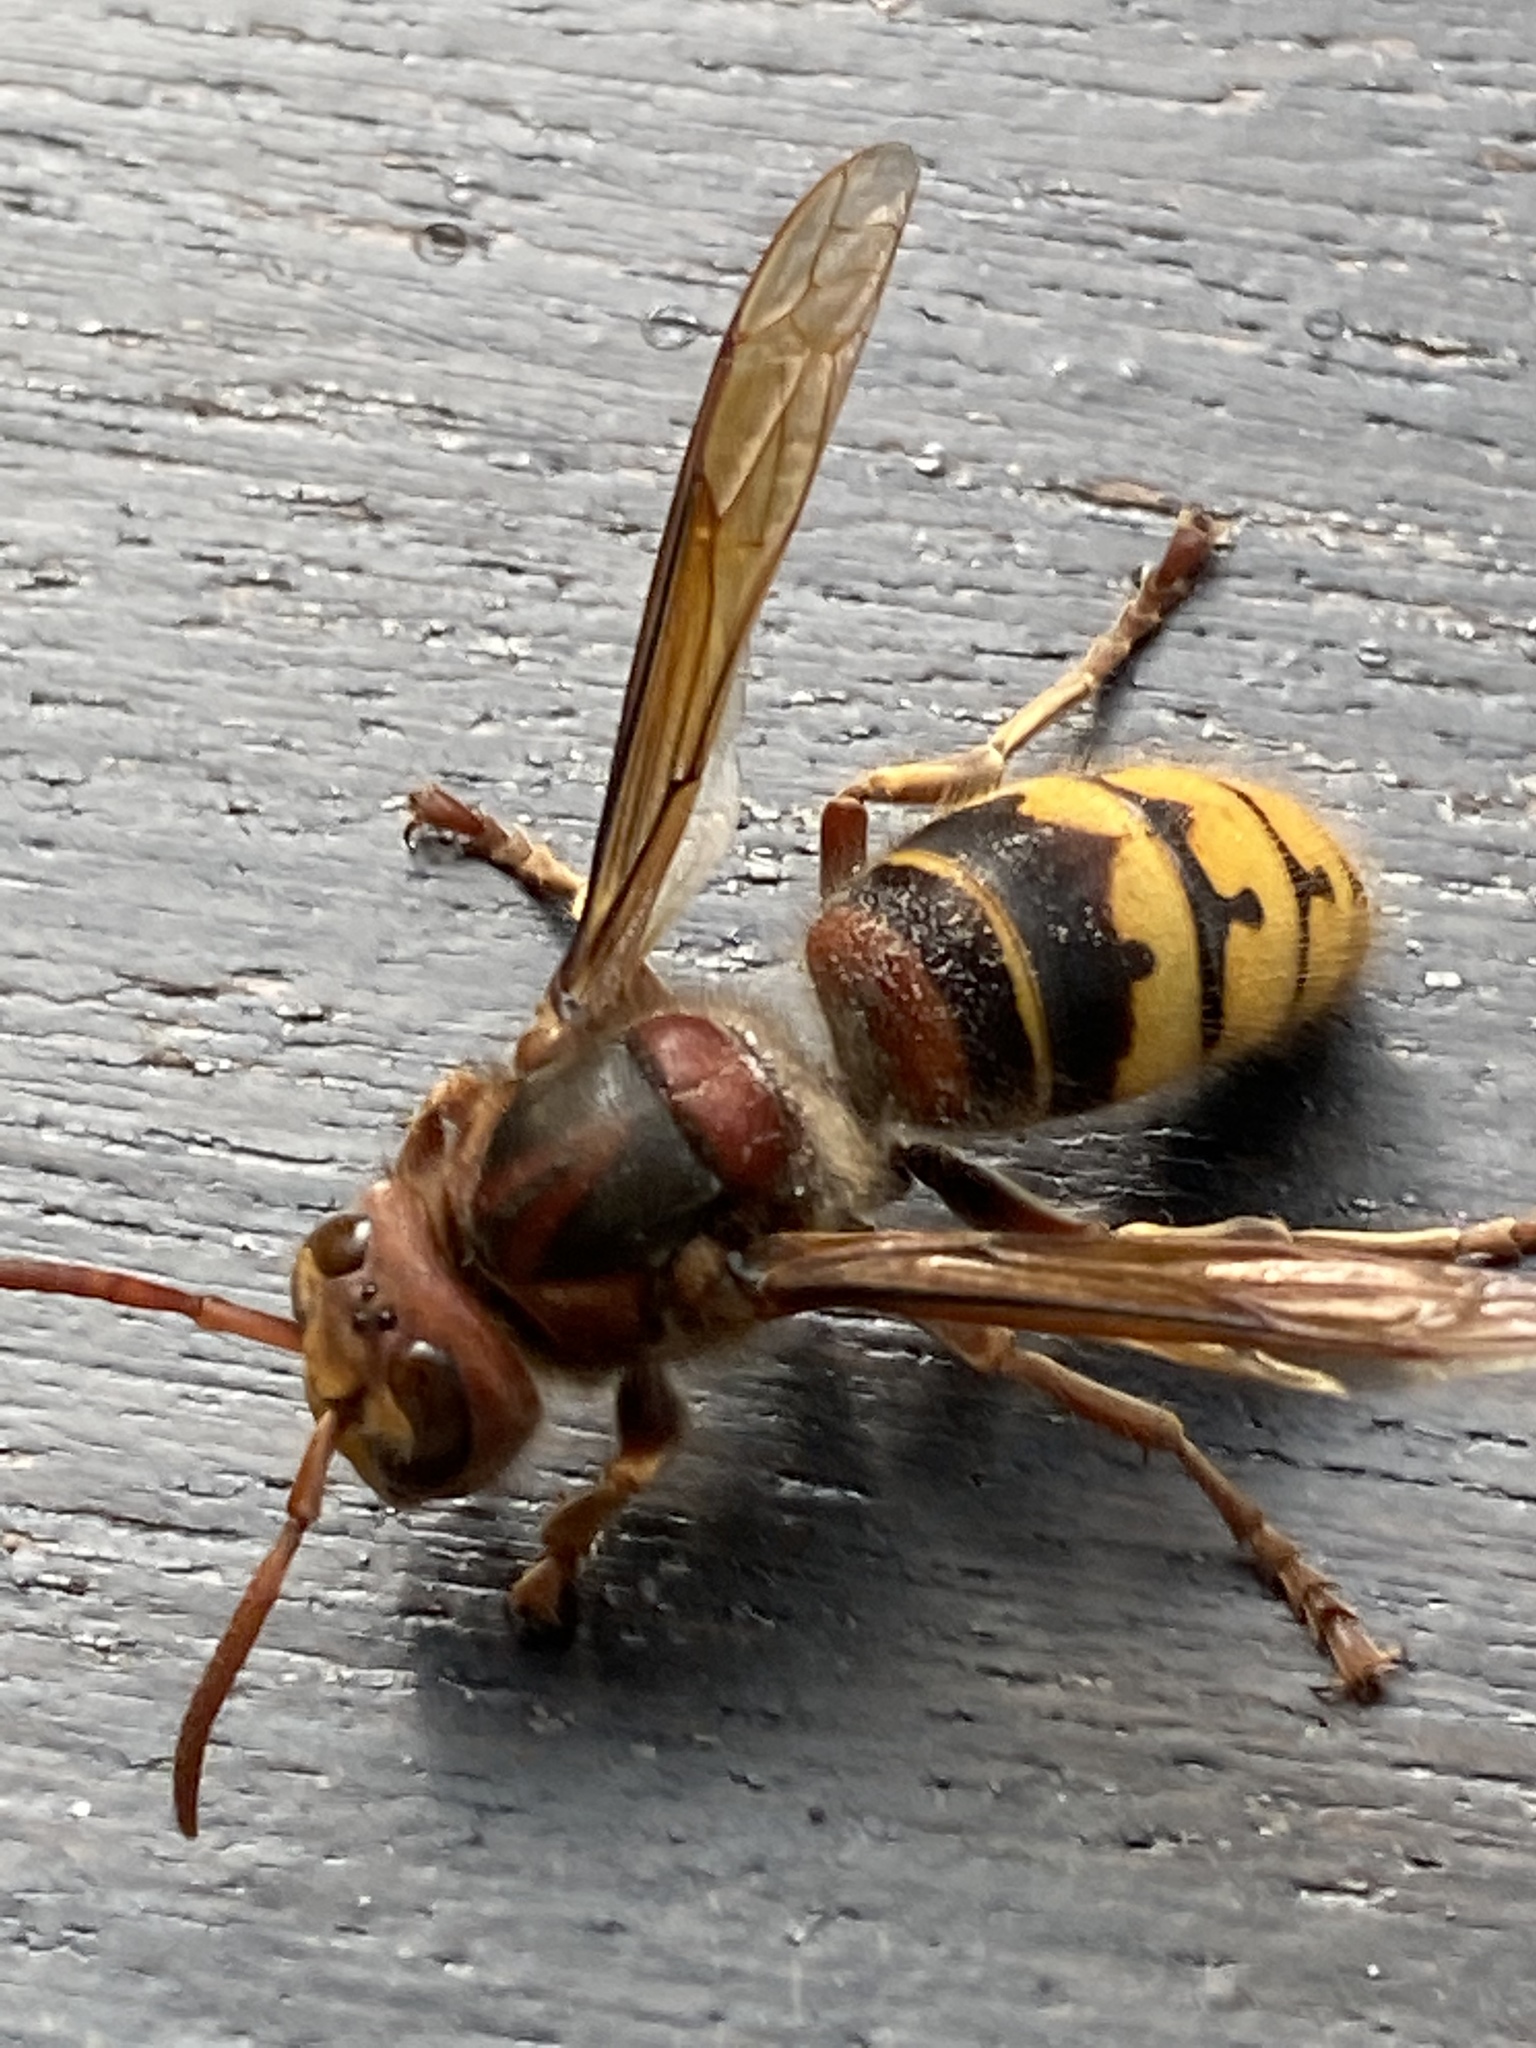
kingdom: Animalia
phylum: Arthropoda
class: Insecta
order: Hymenoptera
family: Vespidae
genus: Vespa
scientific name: Vespa crabro
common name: Hornet
